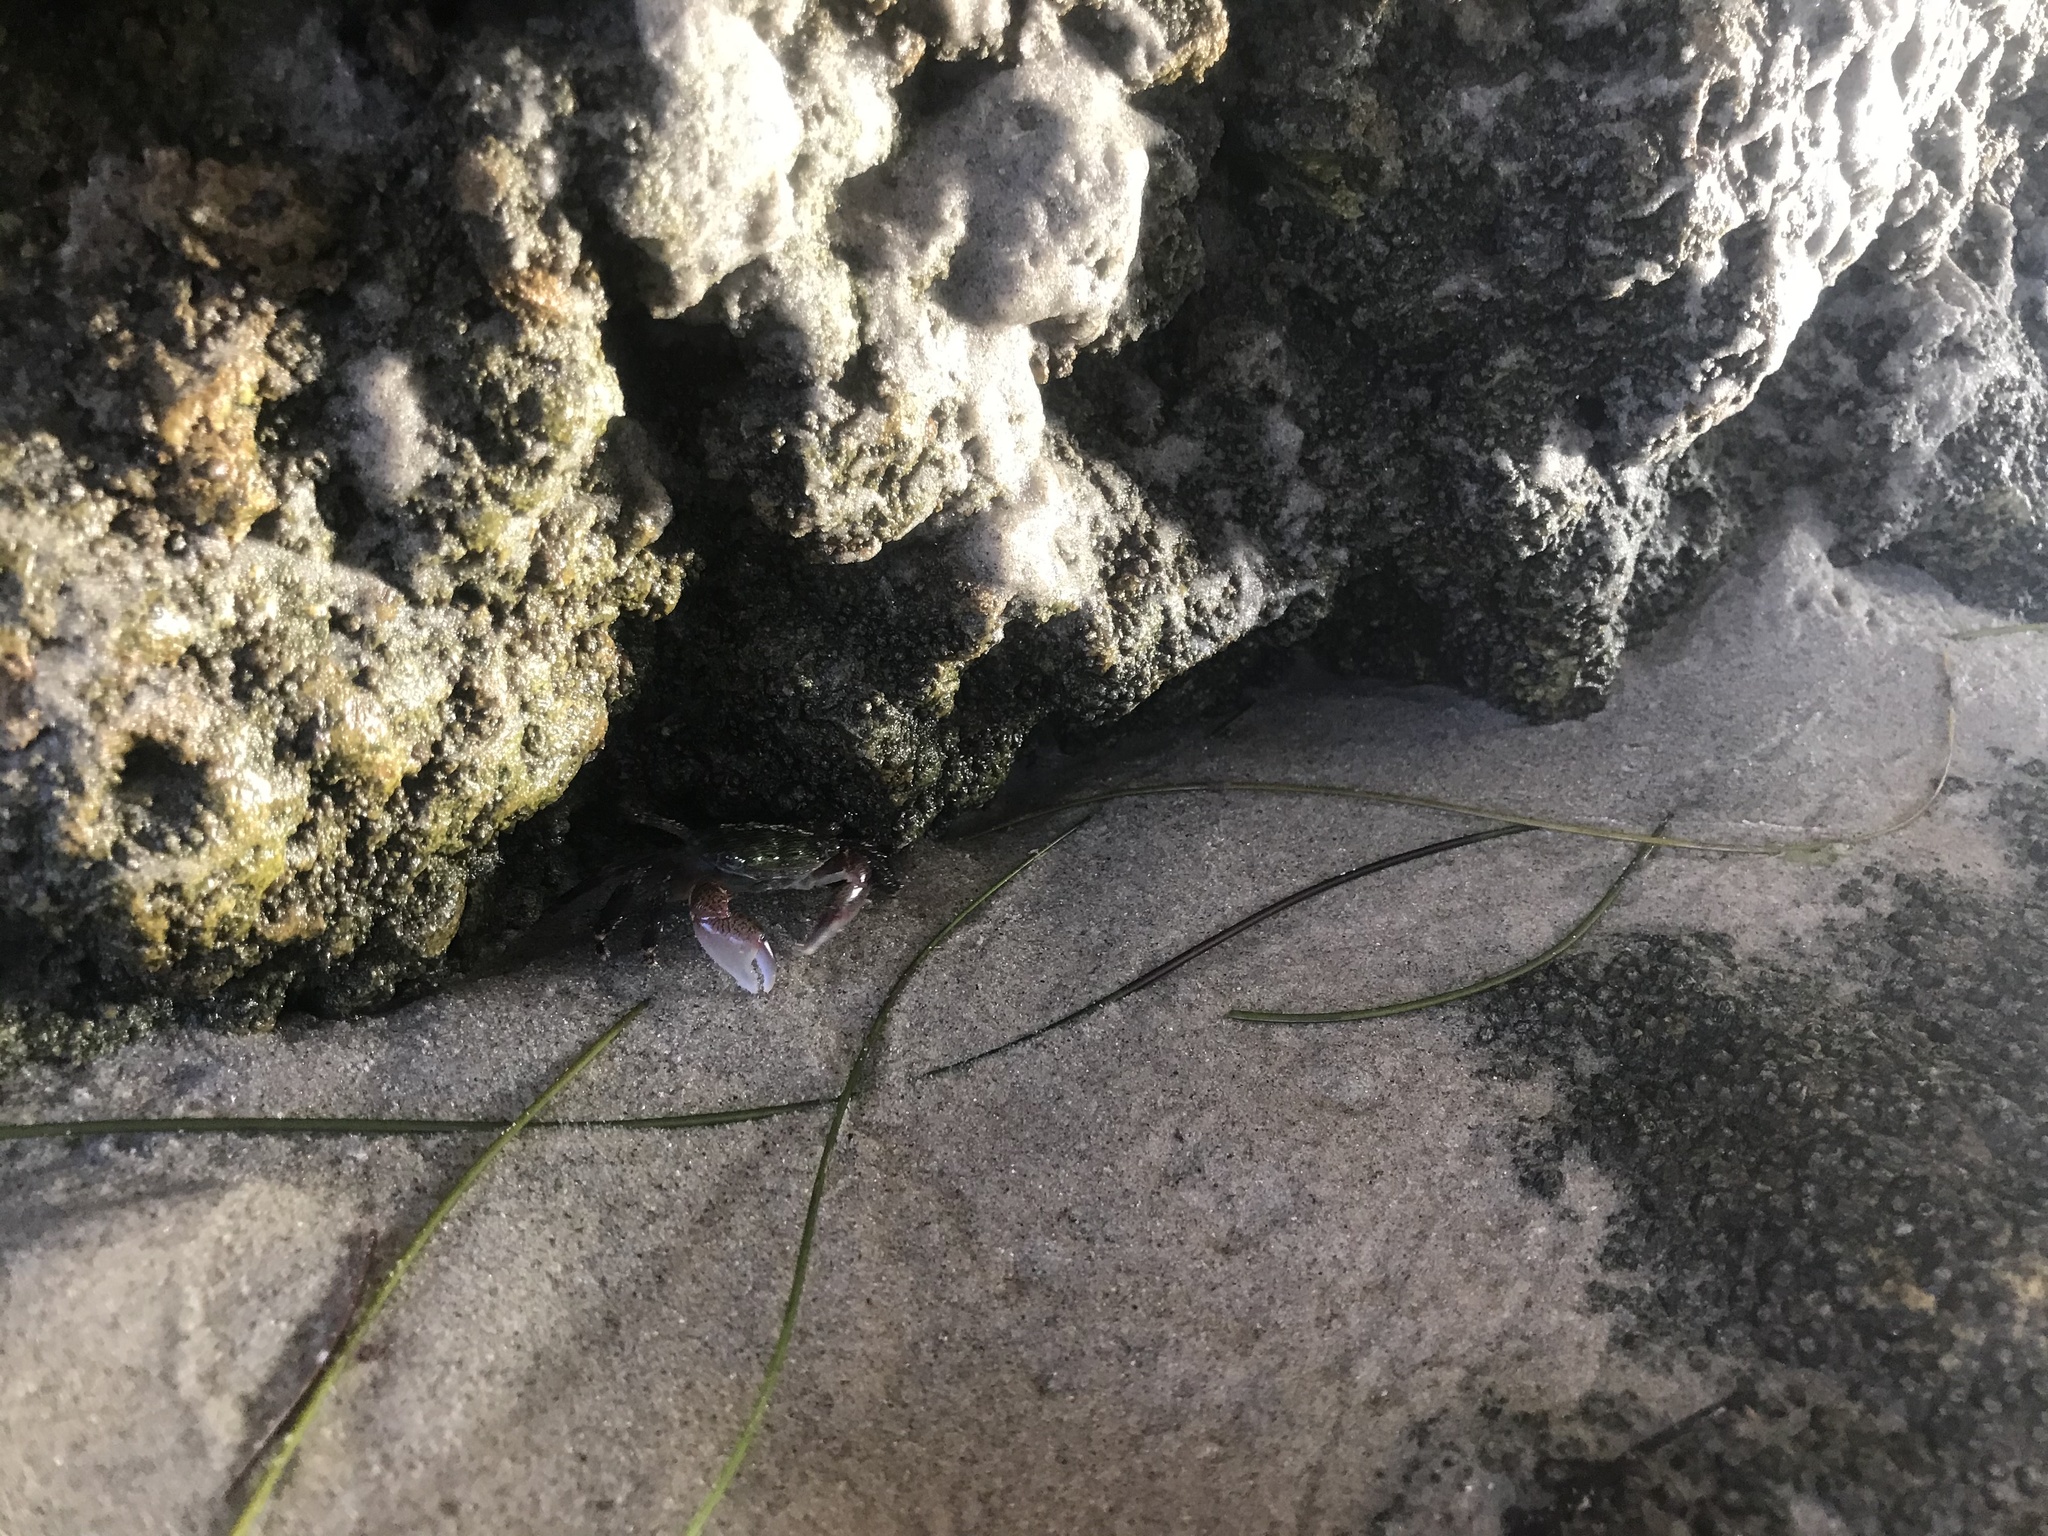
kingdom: Animalia
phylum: Arthropoda
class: Malacostraca
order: Decapoda
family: Grapsidae
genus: Pachygrapsus
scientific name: Pachygrapsus crassipes
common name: Striped shore crab
